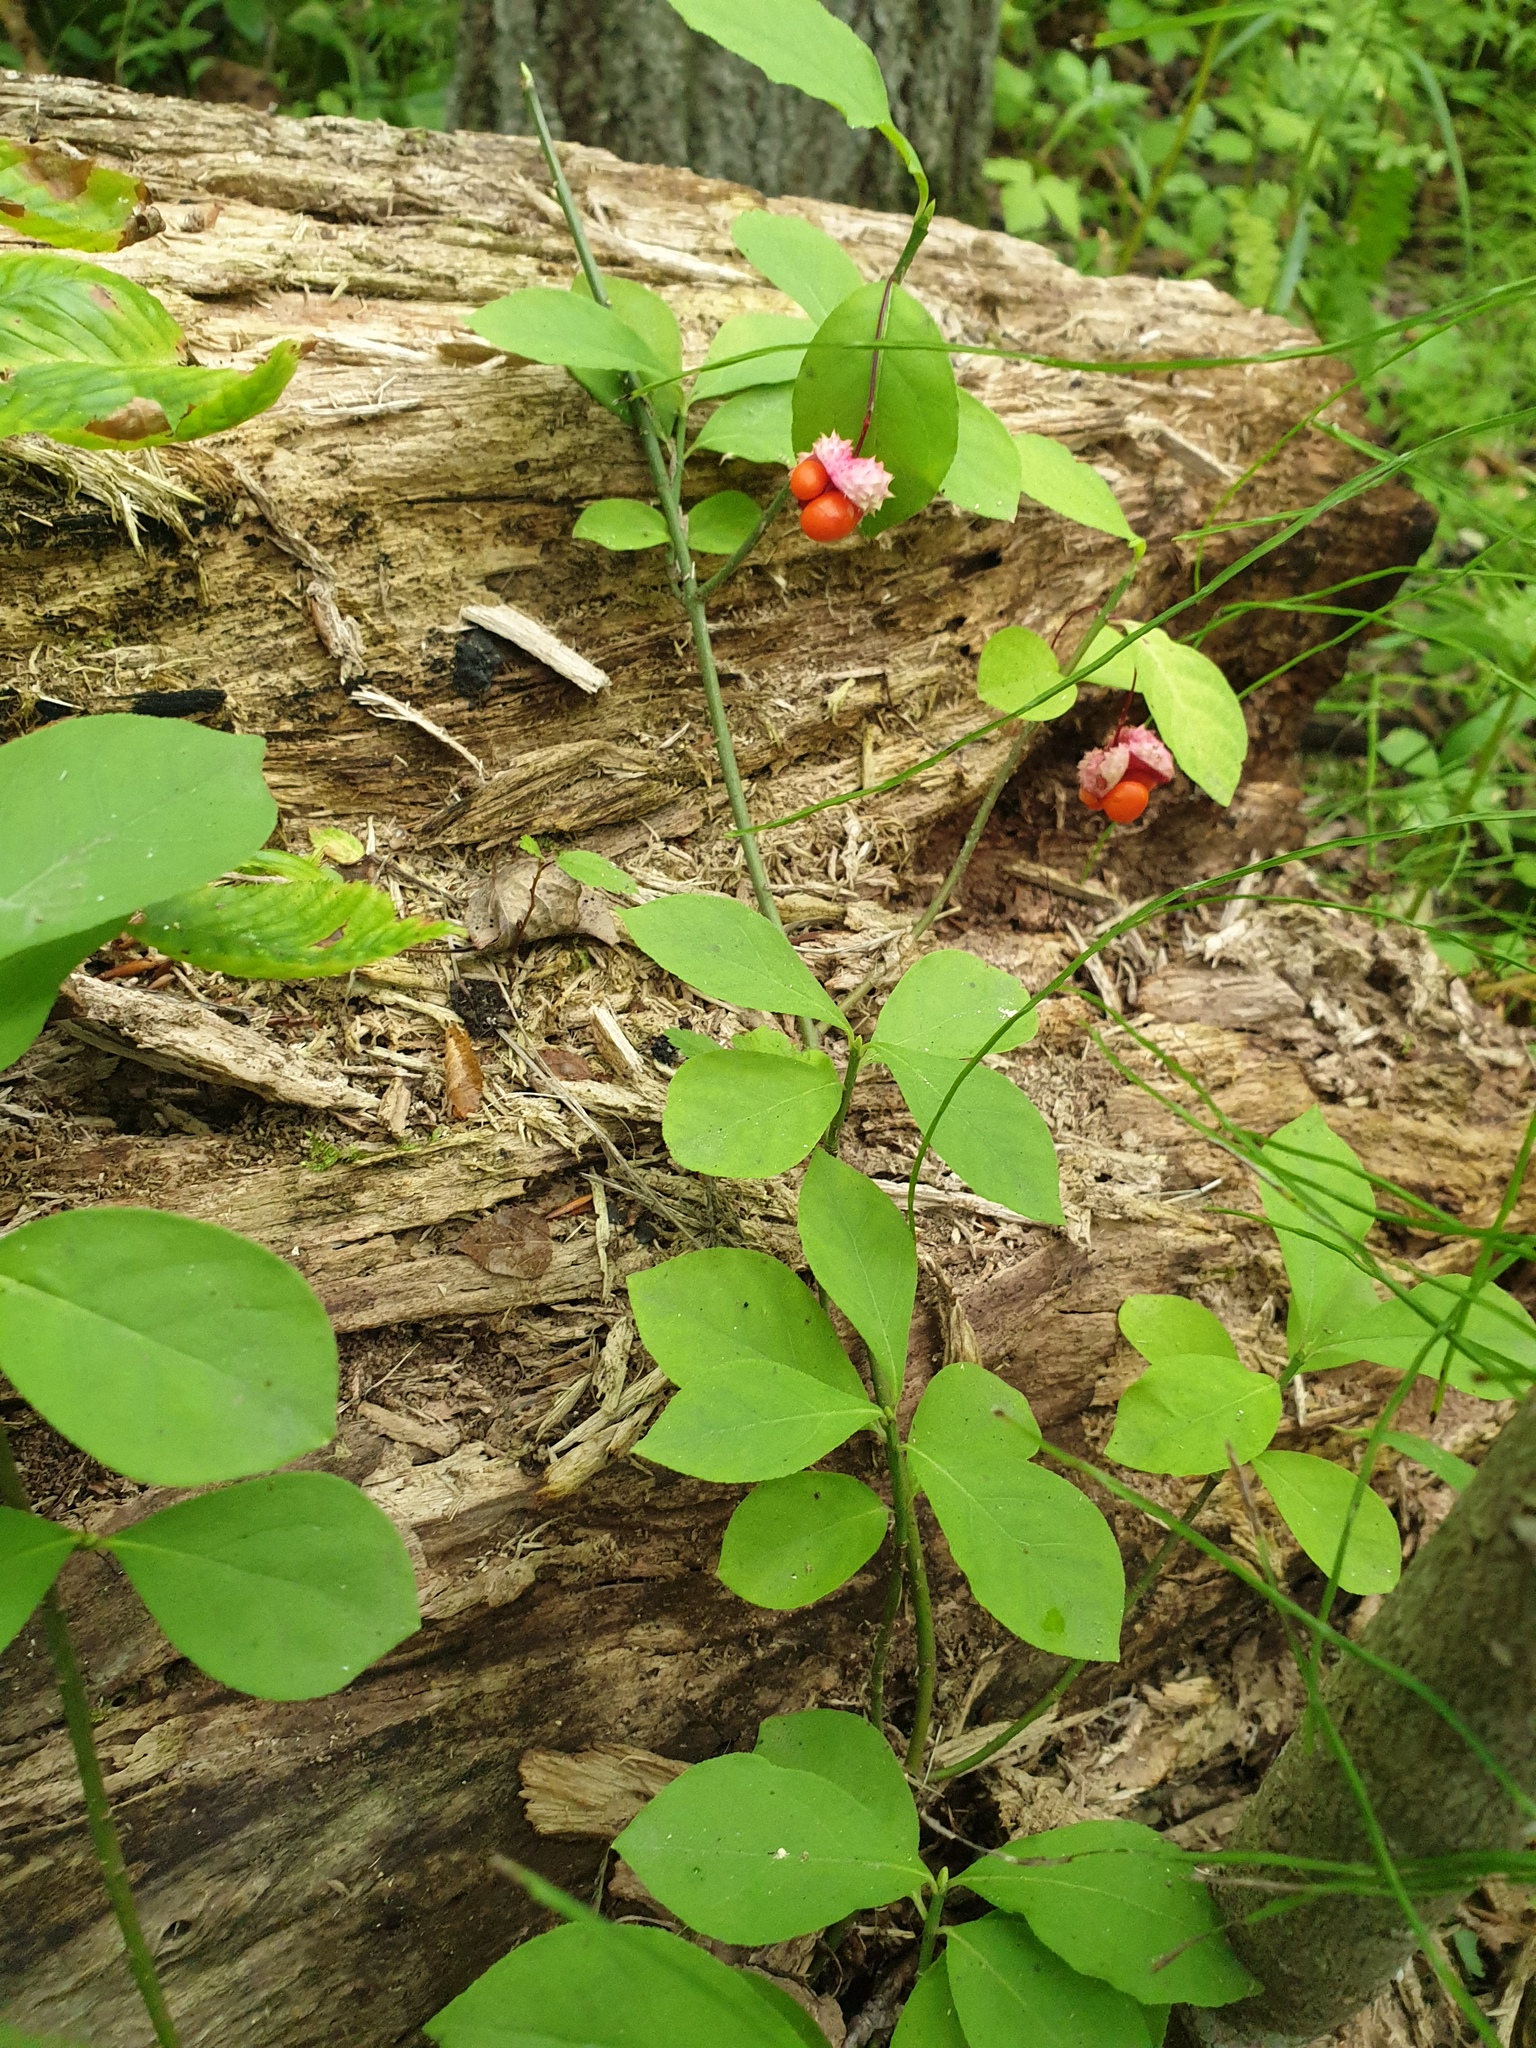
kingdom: Plantae
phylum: Tracheophyta
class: Magnoliopsida
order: Celastrales
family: Celastraceae
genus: Euonymus
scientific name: Euonymus obovatus
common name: Running strawberry-bush
